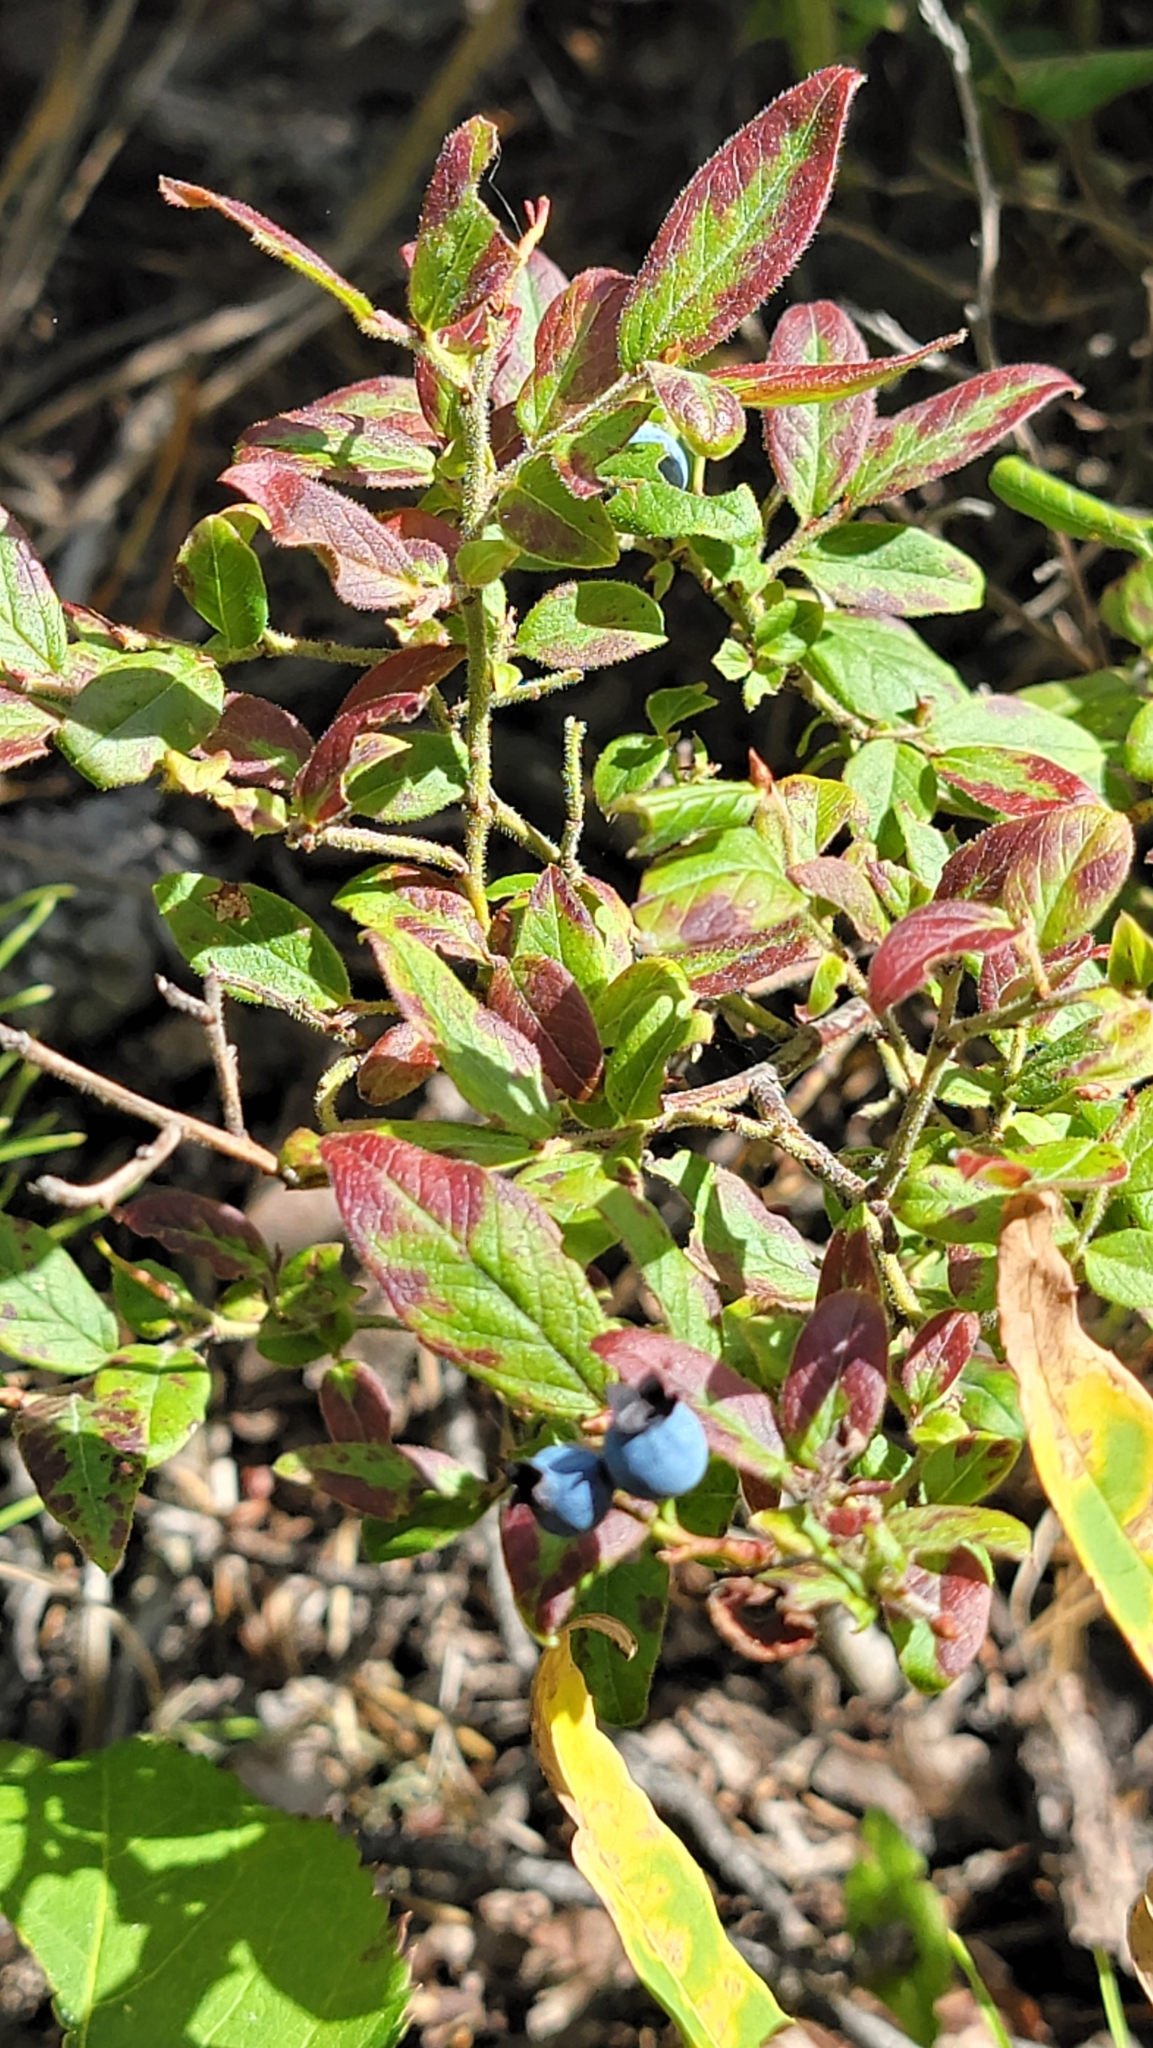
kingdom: Plantae
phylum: Tracheophyta
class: Magnoliopsida
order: Ericales
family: Ericaceae
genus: Vaccinium
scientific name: Vaccinium myrtilloides
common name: Canada blueberry
